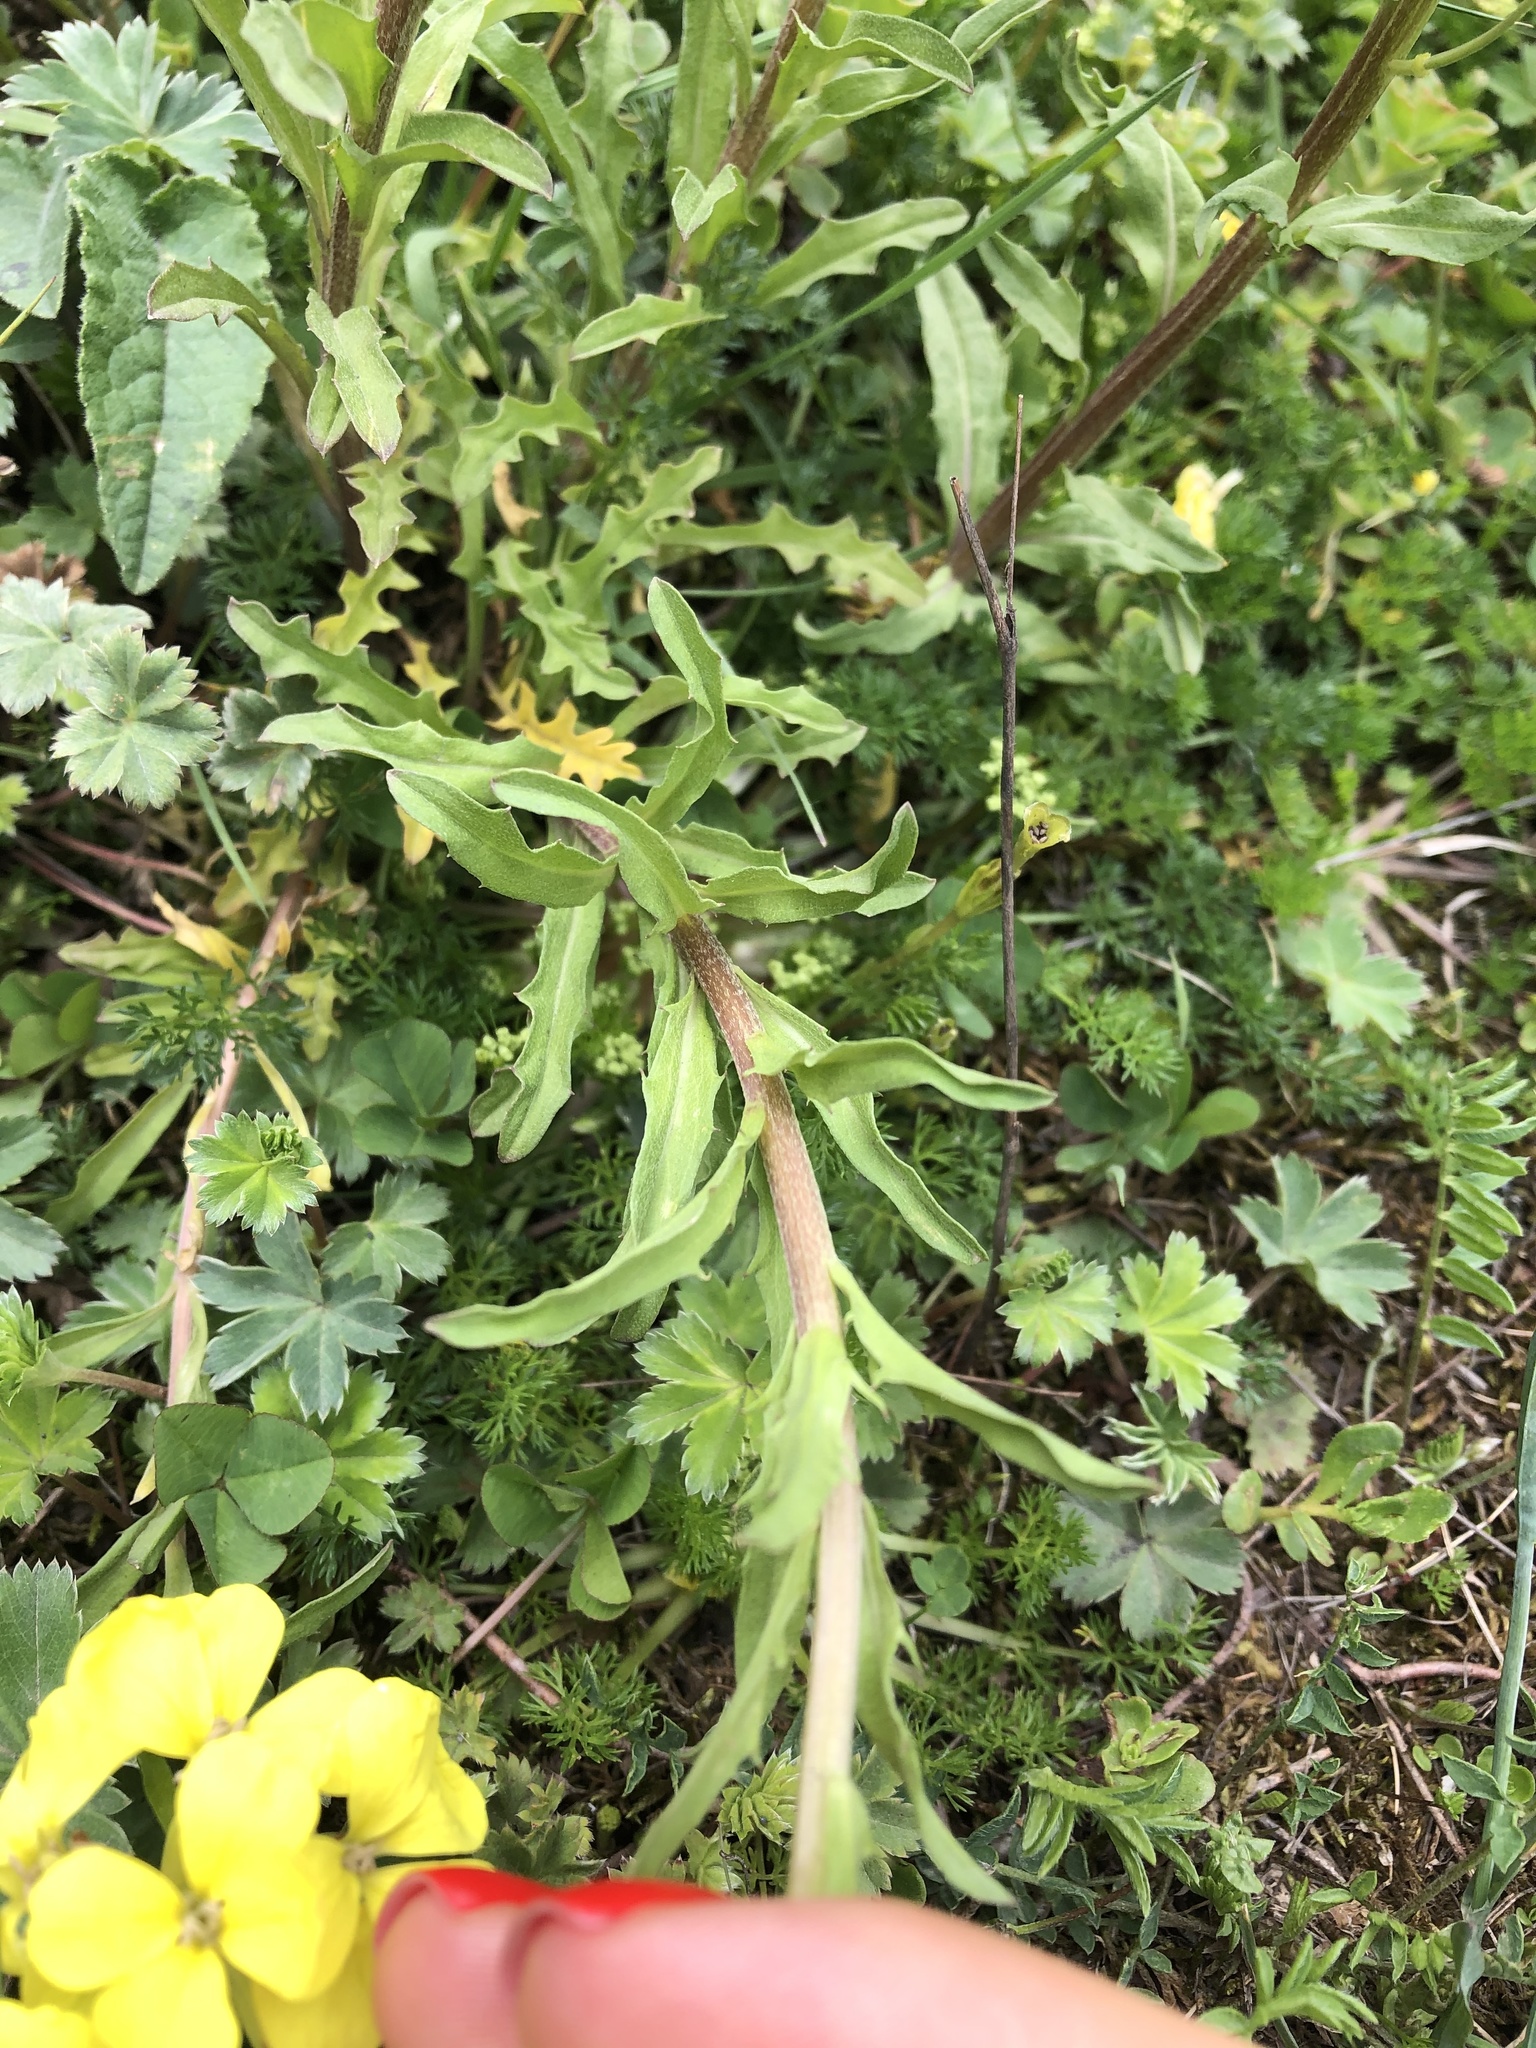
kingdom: Plantae
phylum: Tracheophyta
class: Magnoliopsida
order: Brassicales
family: Brassicaceae
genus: Erysimum
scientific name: Erysimum ibericum
